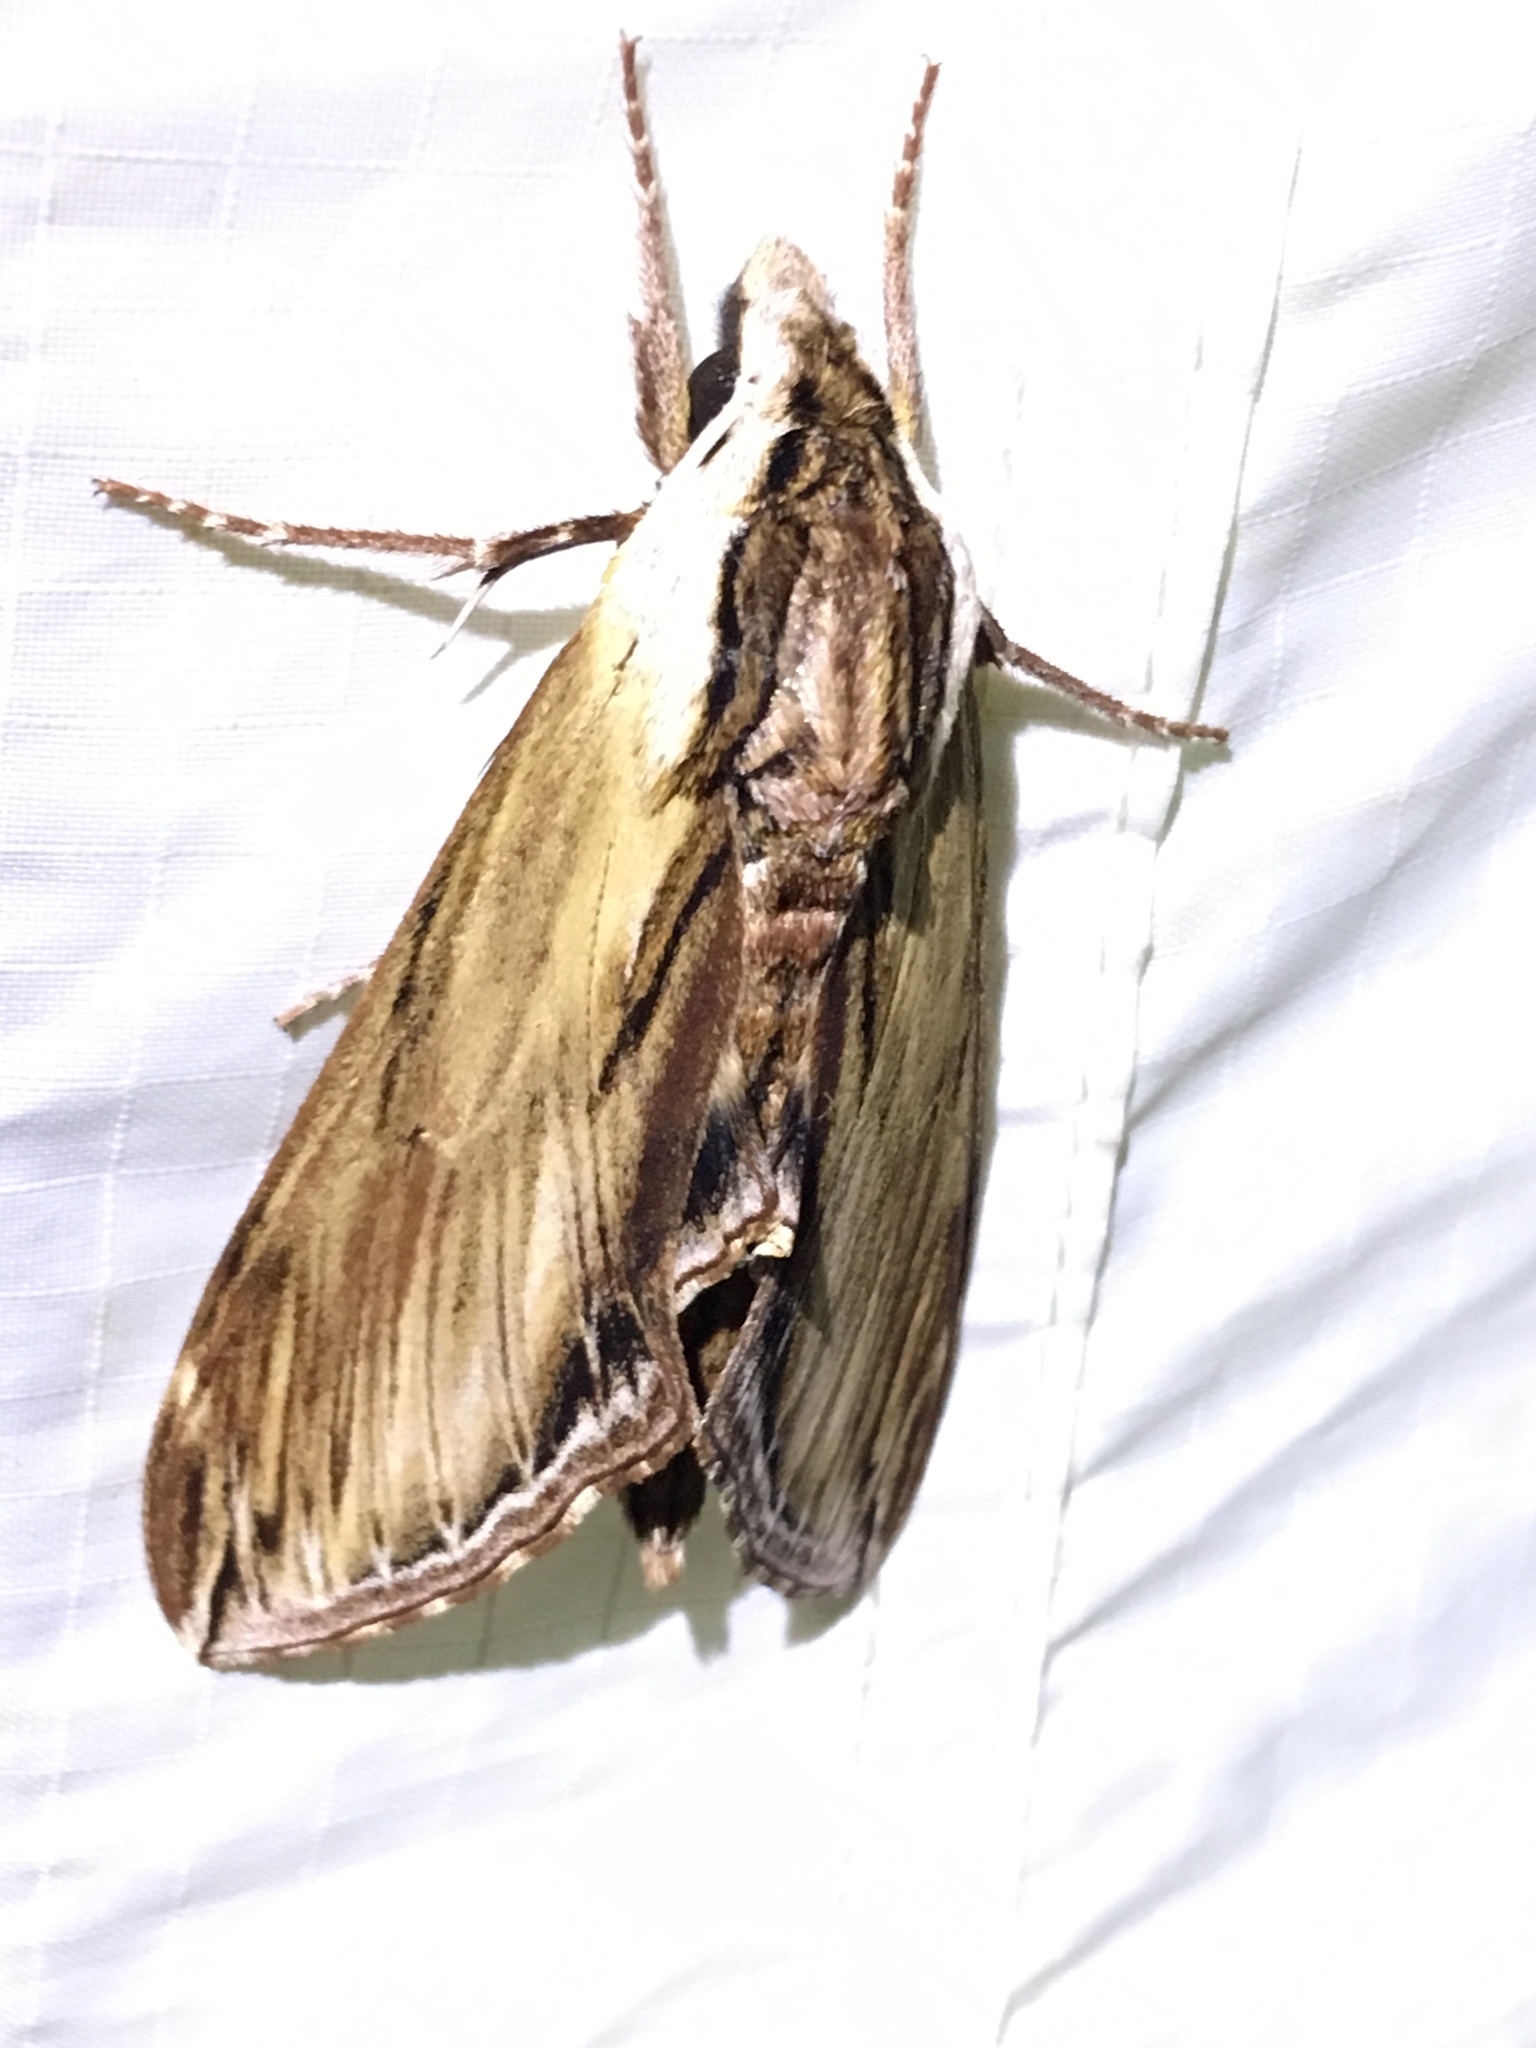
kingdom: Animalia
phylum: Arthropoda
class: Insecta
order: Lepidoptera
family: Sphingidae
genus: Sphinx
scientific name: Sphinx kalmiae
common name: Laurel sphinx
